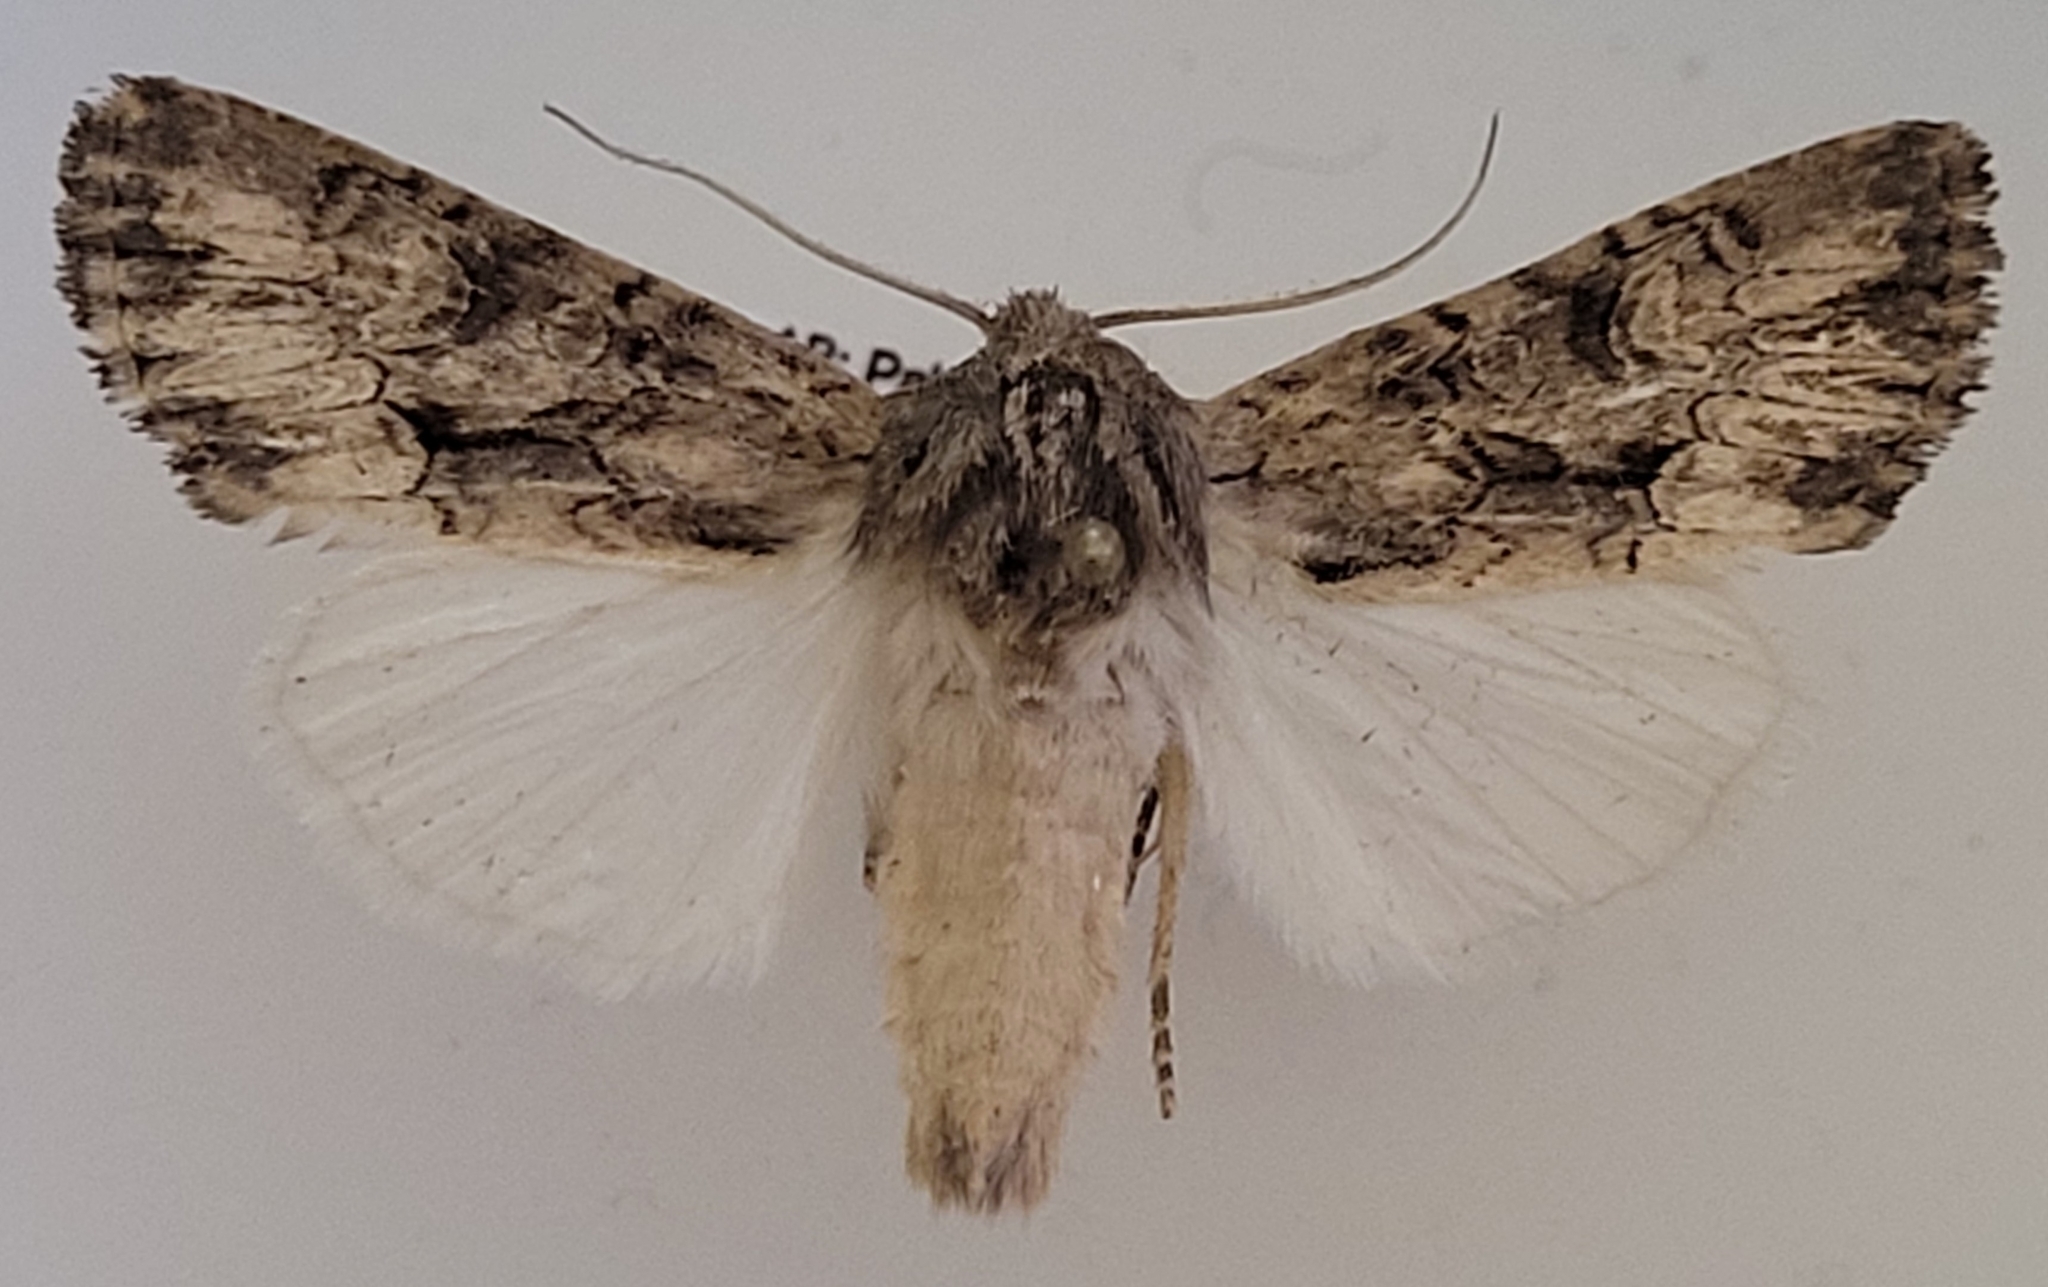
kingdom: Animalia
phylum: Arthropoda
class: Insecta
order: Lepidoptera
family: Noctuidae
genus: Apamea
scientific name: Apamea burgessi
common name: Burgess' apamea moth
